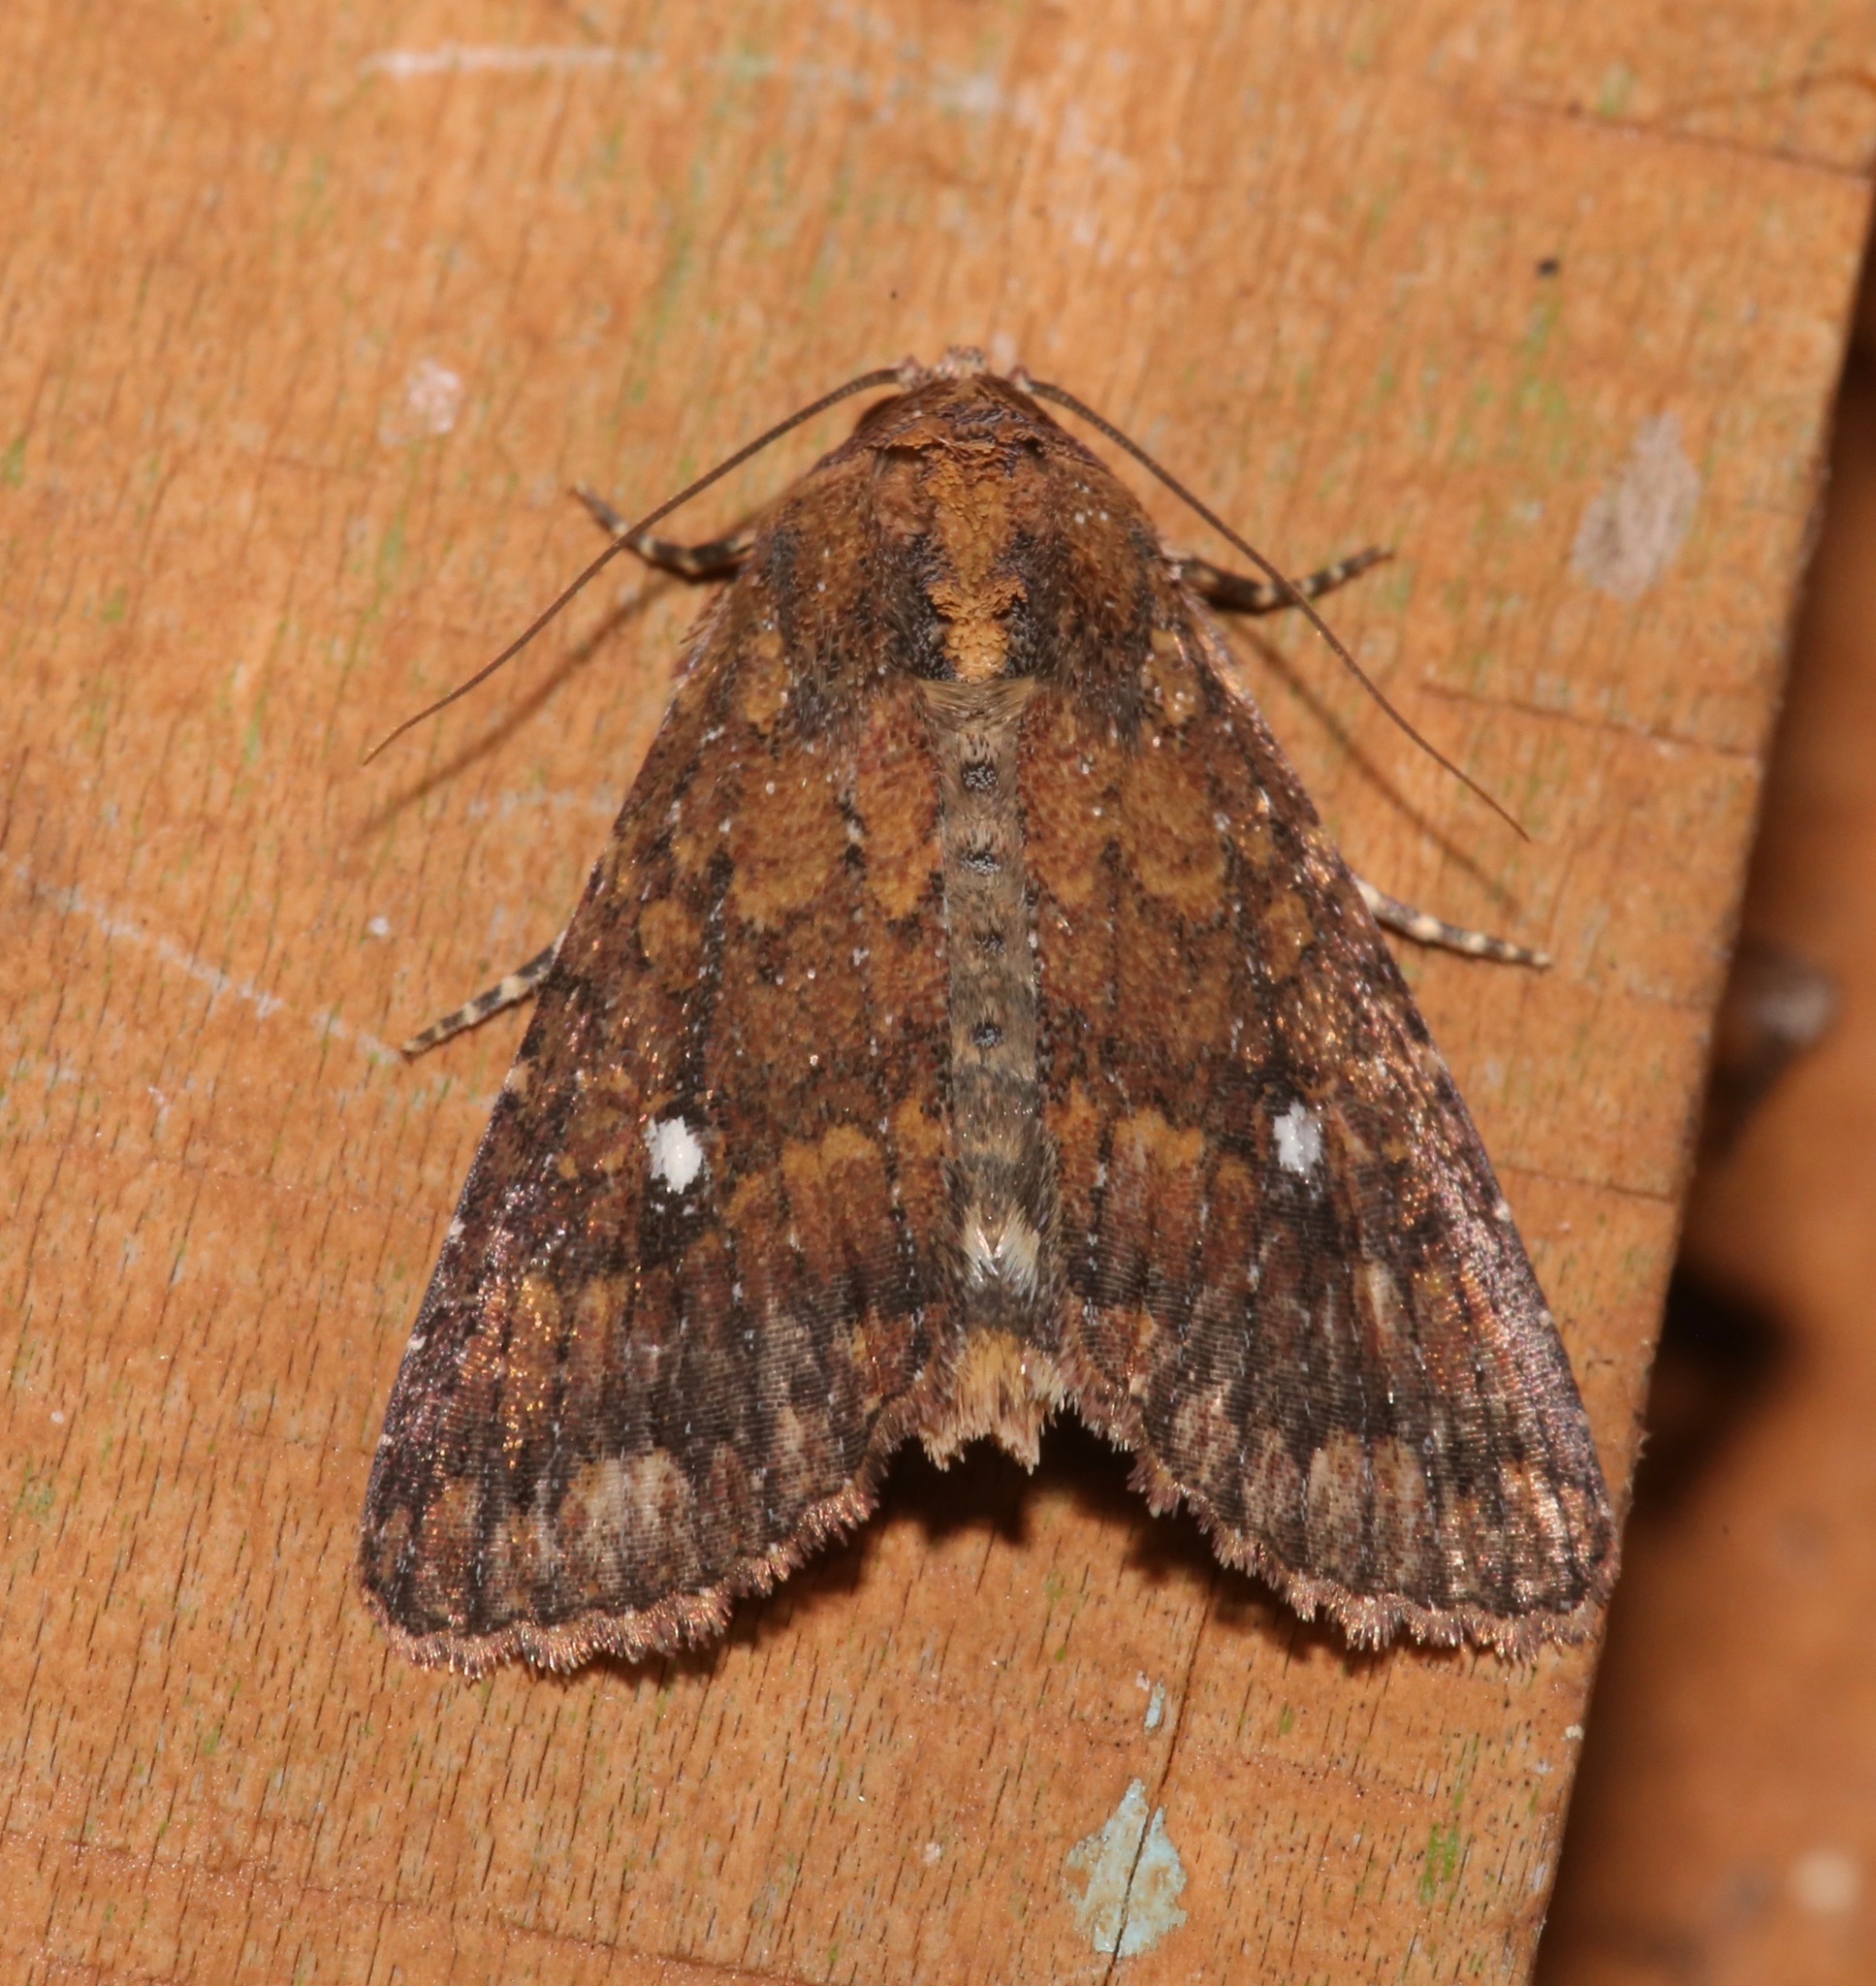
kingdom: Animalia
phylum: Arthropoda
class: Insecta
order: Lepidoptera
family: Noctuidae
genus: Condica
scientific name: Condica mobilis
